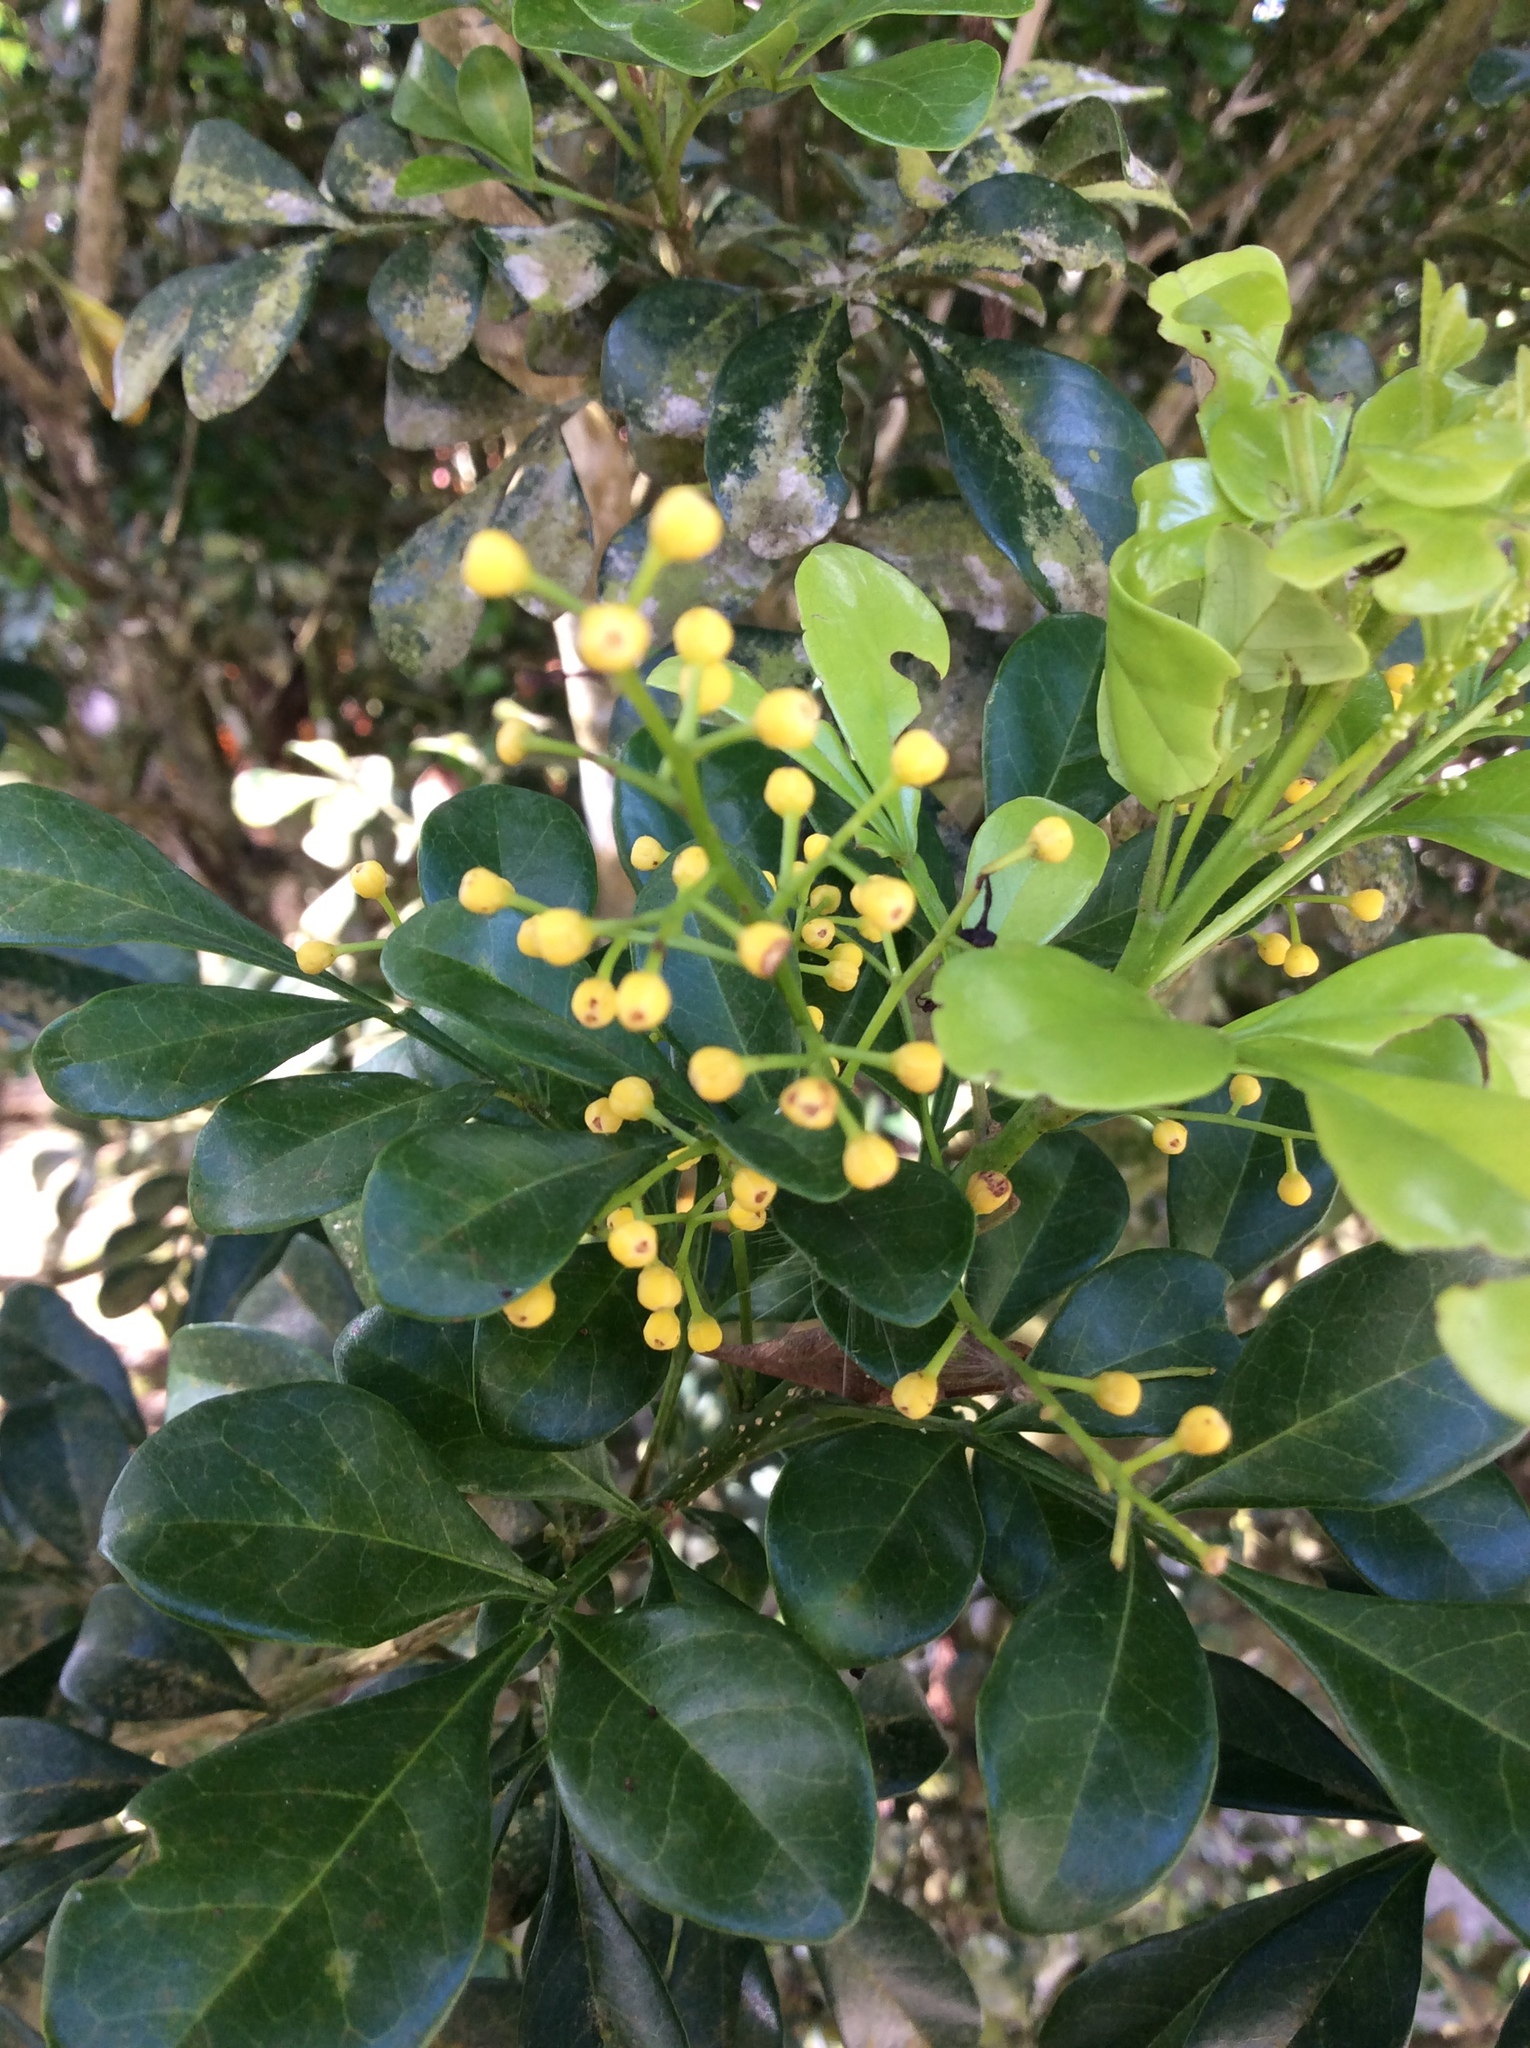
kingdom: Plantae
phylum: Tracheophyta
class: Magnoliopsida
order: Sapindales
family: Meliaceae
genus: Aglaia
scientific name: Aglaia odorata
